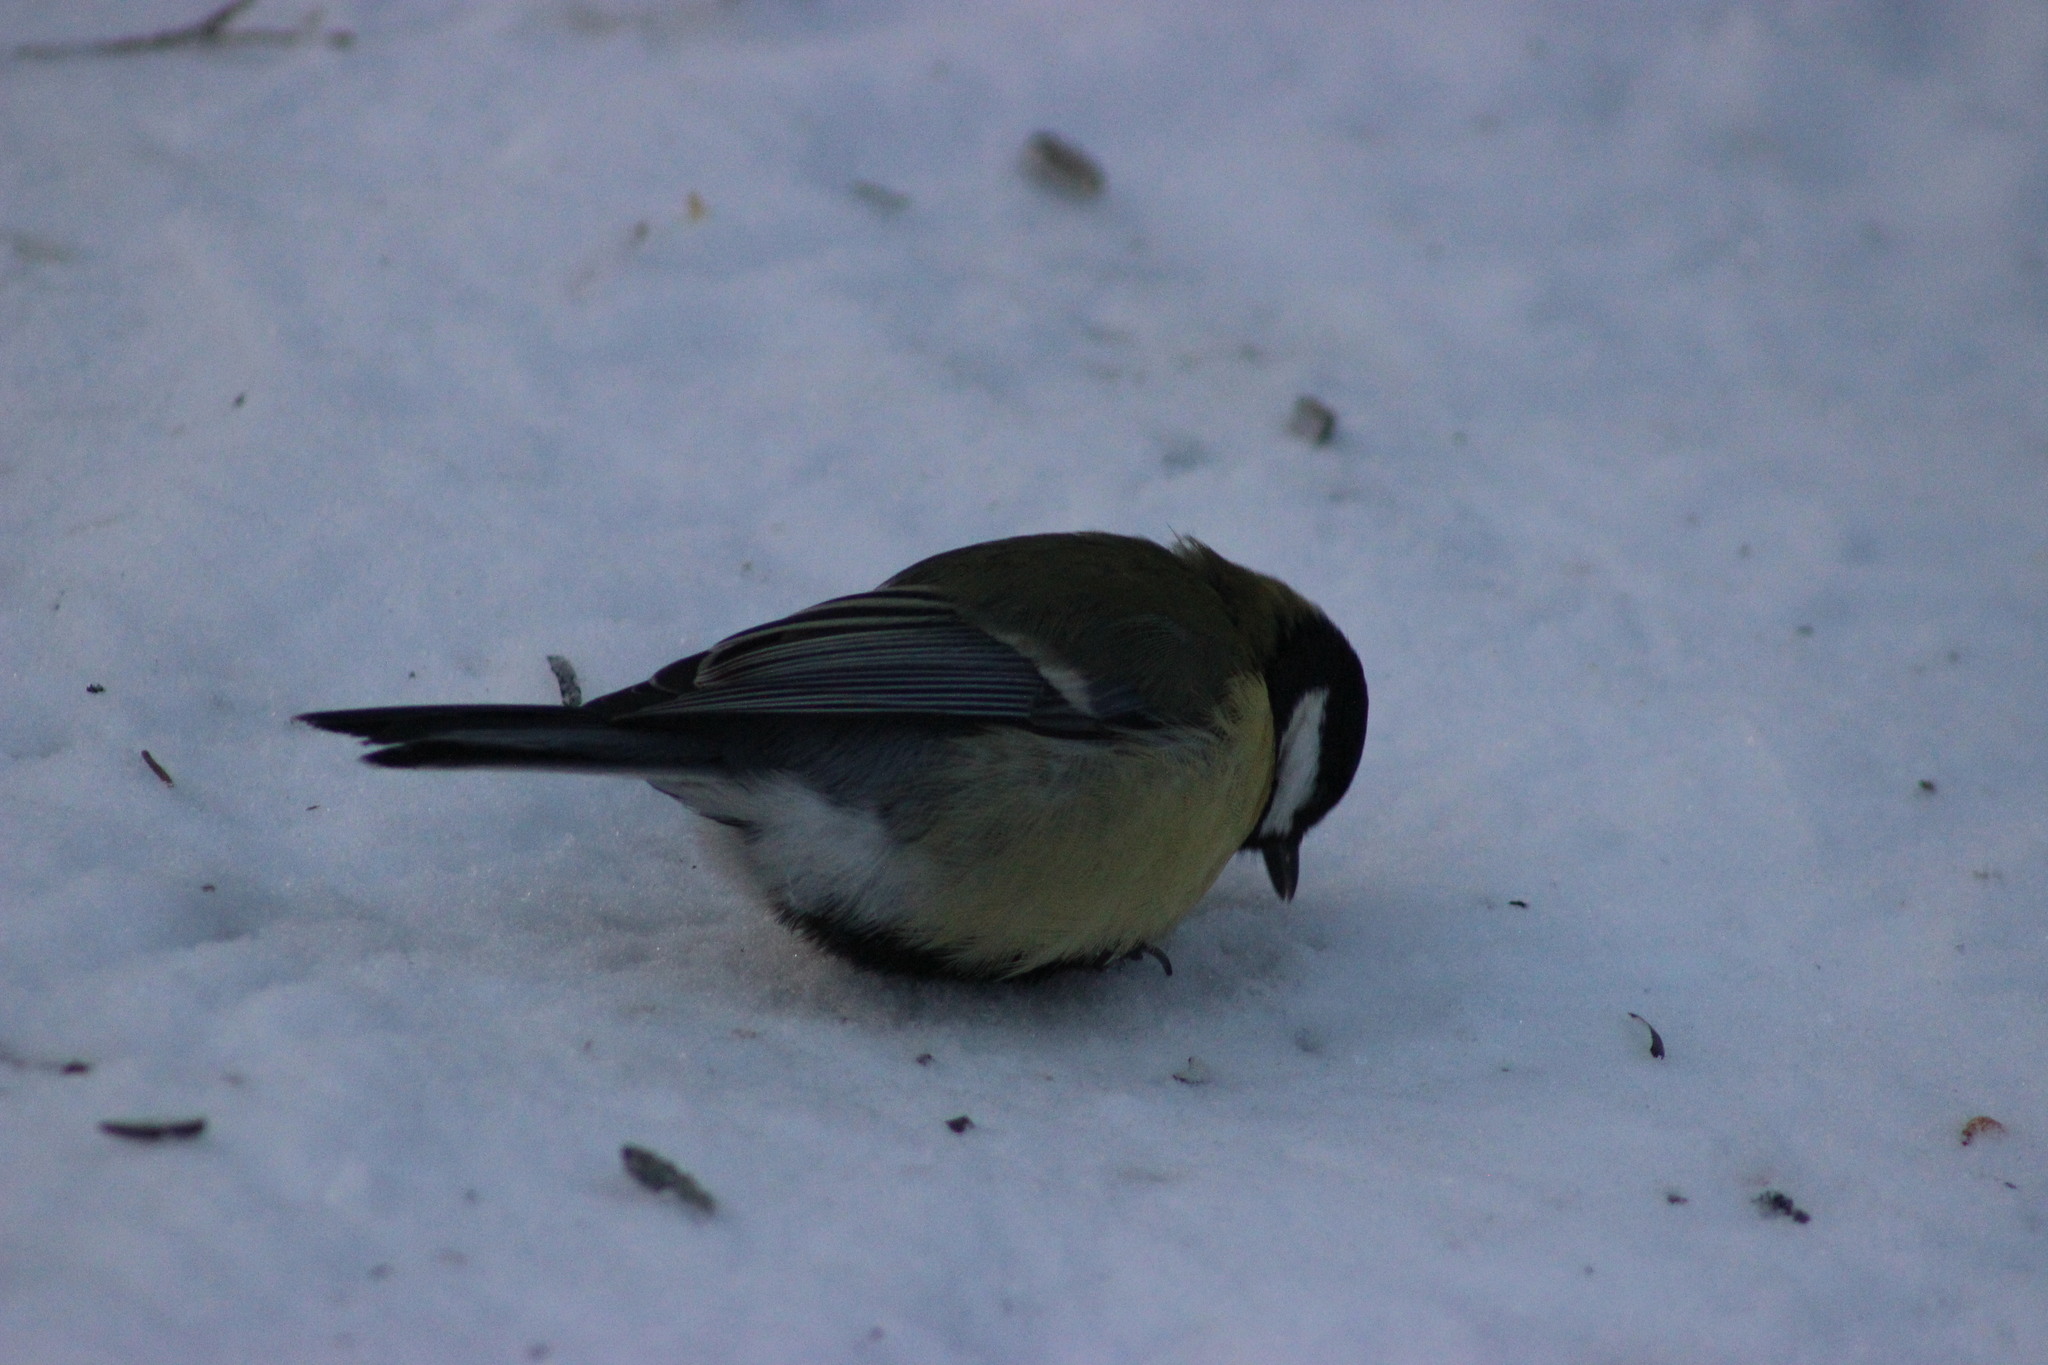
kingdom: Animalia
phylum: Chordata
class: Aves
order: Passeriformes
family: Paridae
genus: Parus
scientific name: Parus major
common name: Great tit
